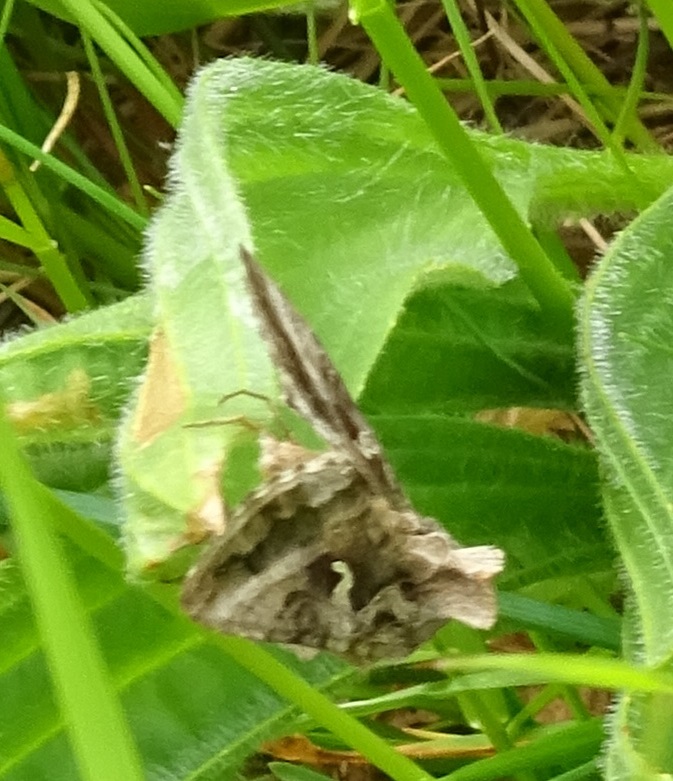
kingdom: Animalia
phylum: Arthropoda
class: Insecta
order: Lepidoptera
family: Noctuidae
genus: Autographa
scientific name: Autographa gamma
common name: Silver y
